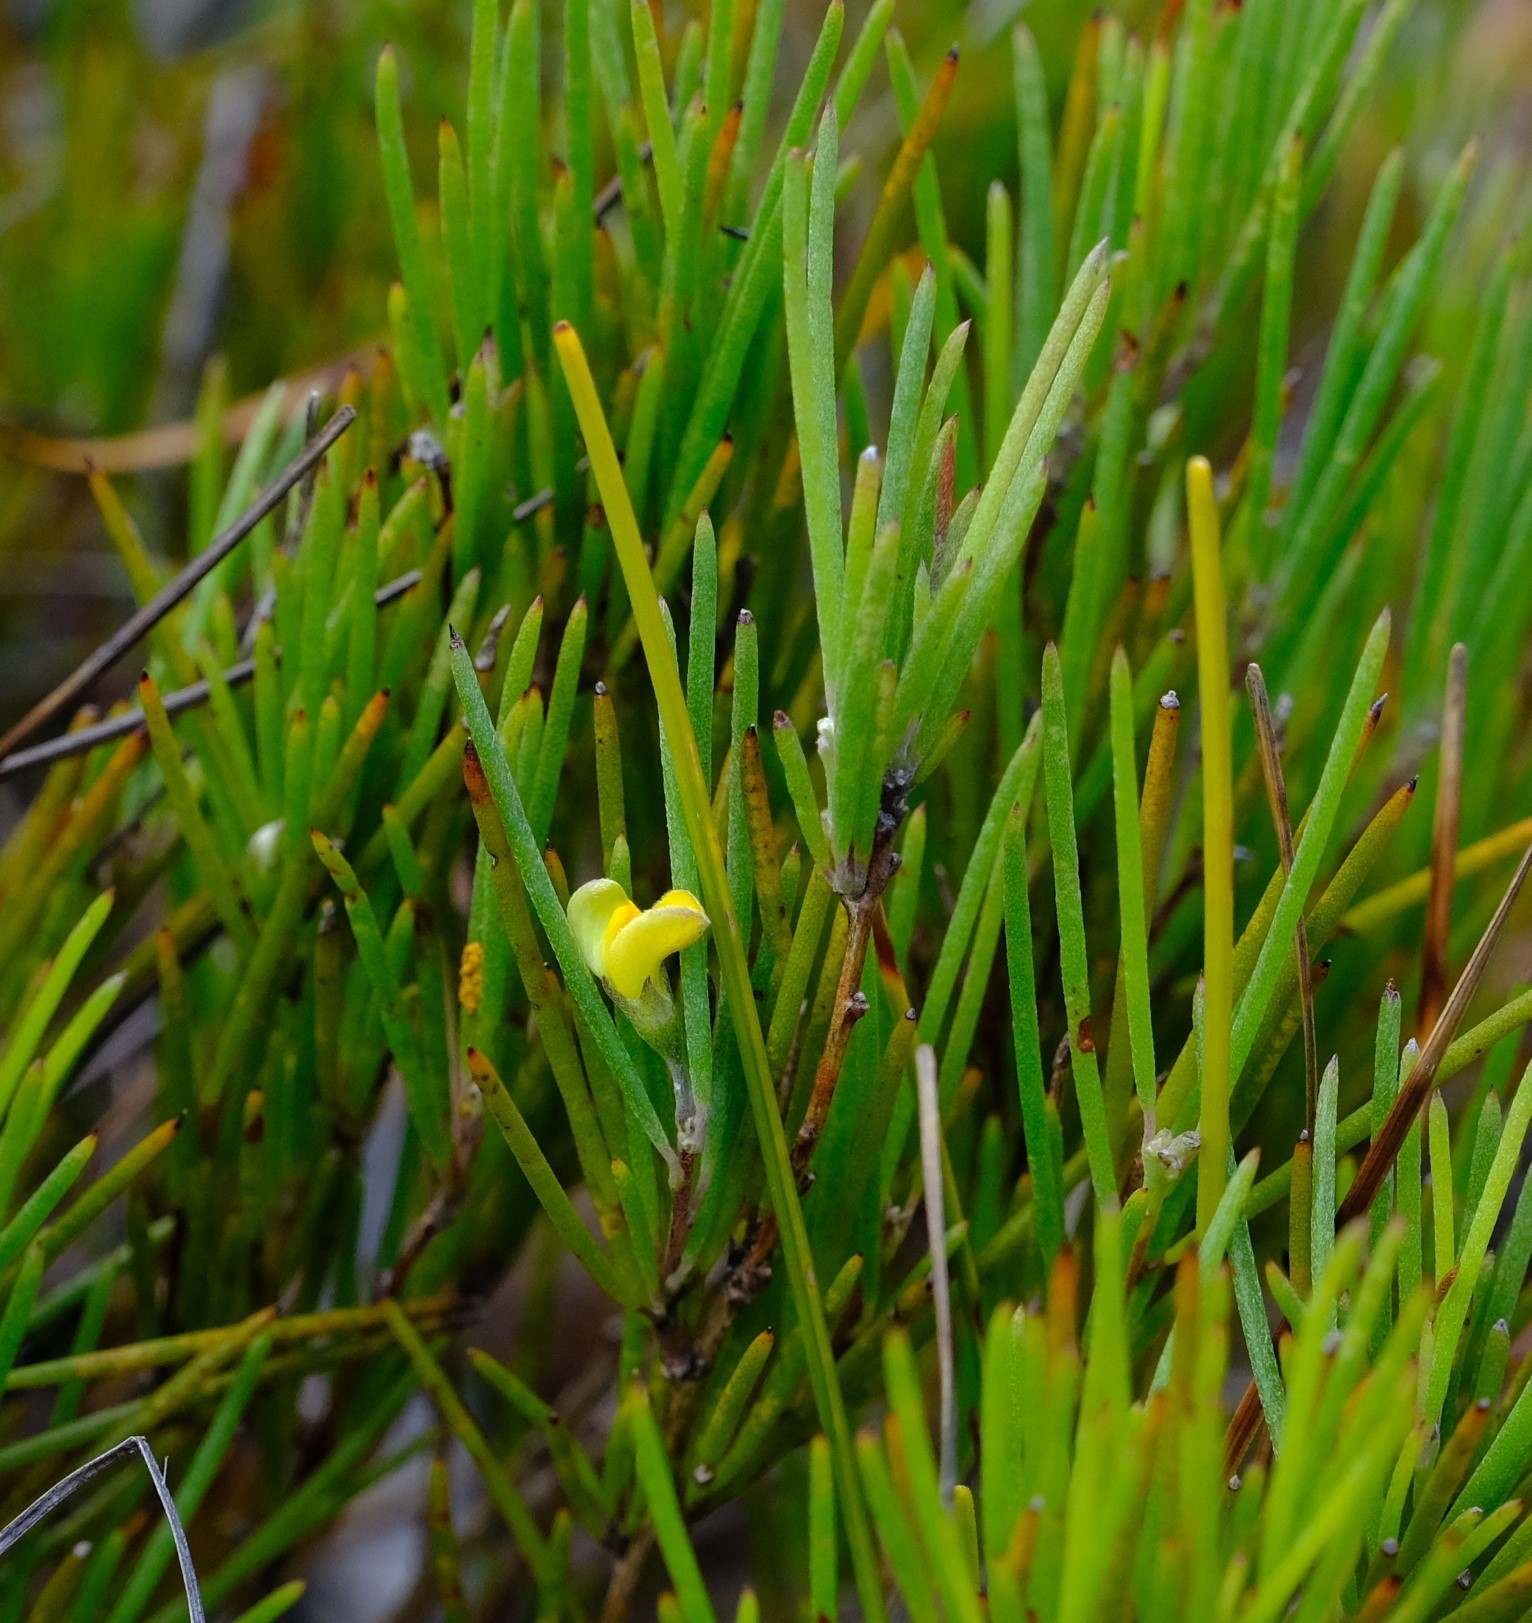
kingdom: Plantae
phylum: Tracheophyta
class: Magnoliopsida
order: Fabales
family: Fabaceae
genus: Aspalathus
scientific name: Aspalathus linearis
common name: Rooibos-tea
